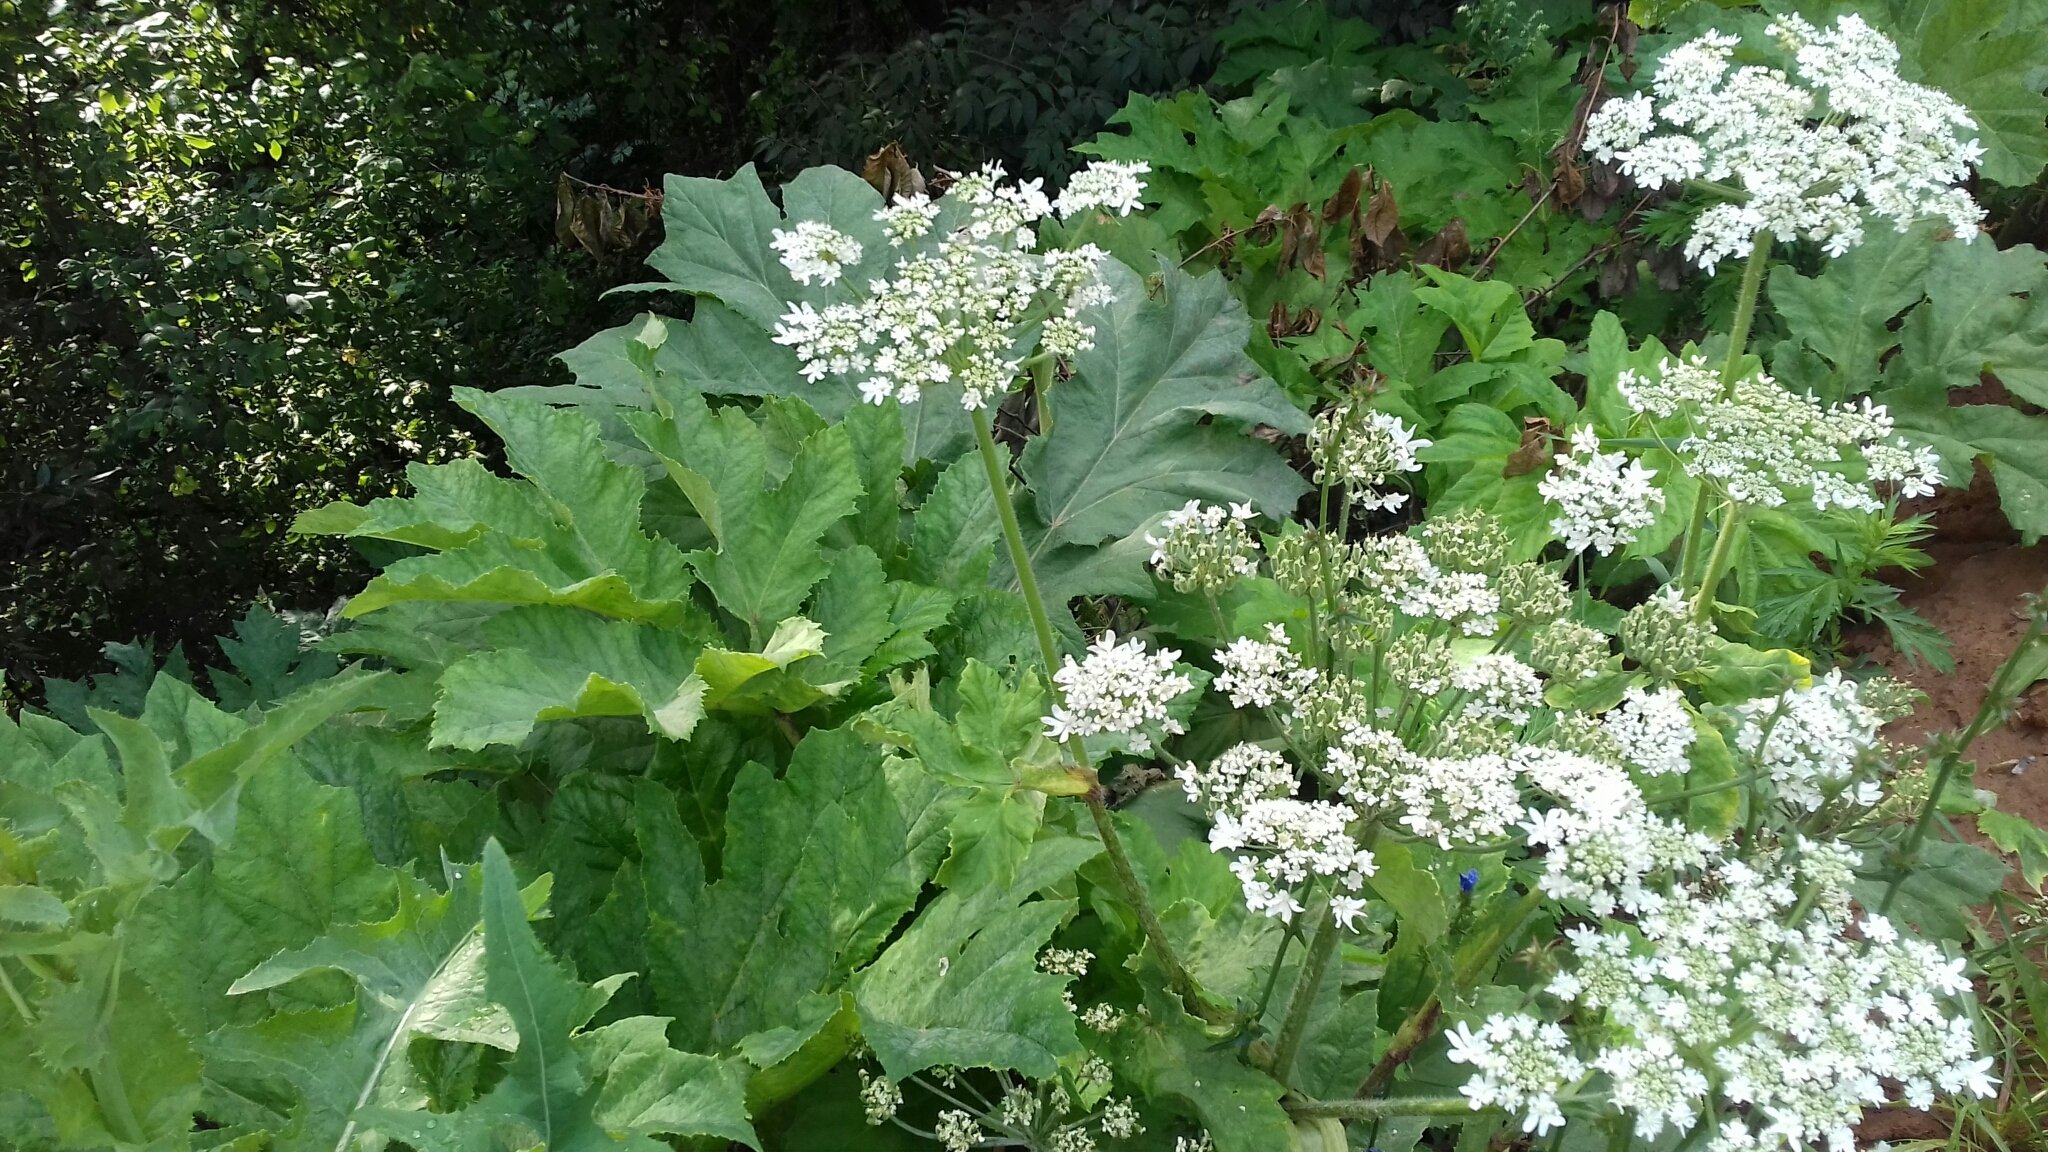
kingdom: Plantae
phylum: Tracheophyta
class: Magnoliopsida
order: Apiales
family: Apiaceae
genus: Heracleum
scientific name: Heracleum sosnowskyi
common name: Sosnowsky's hogweed
